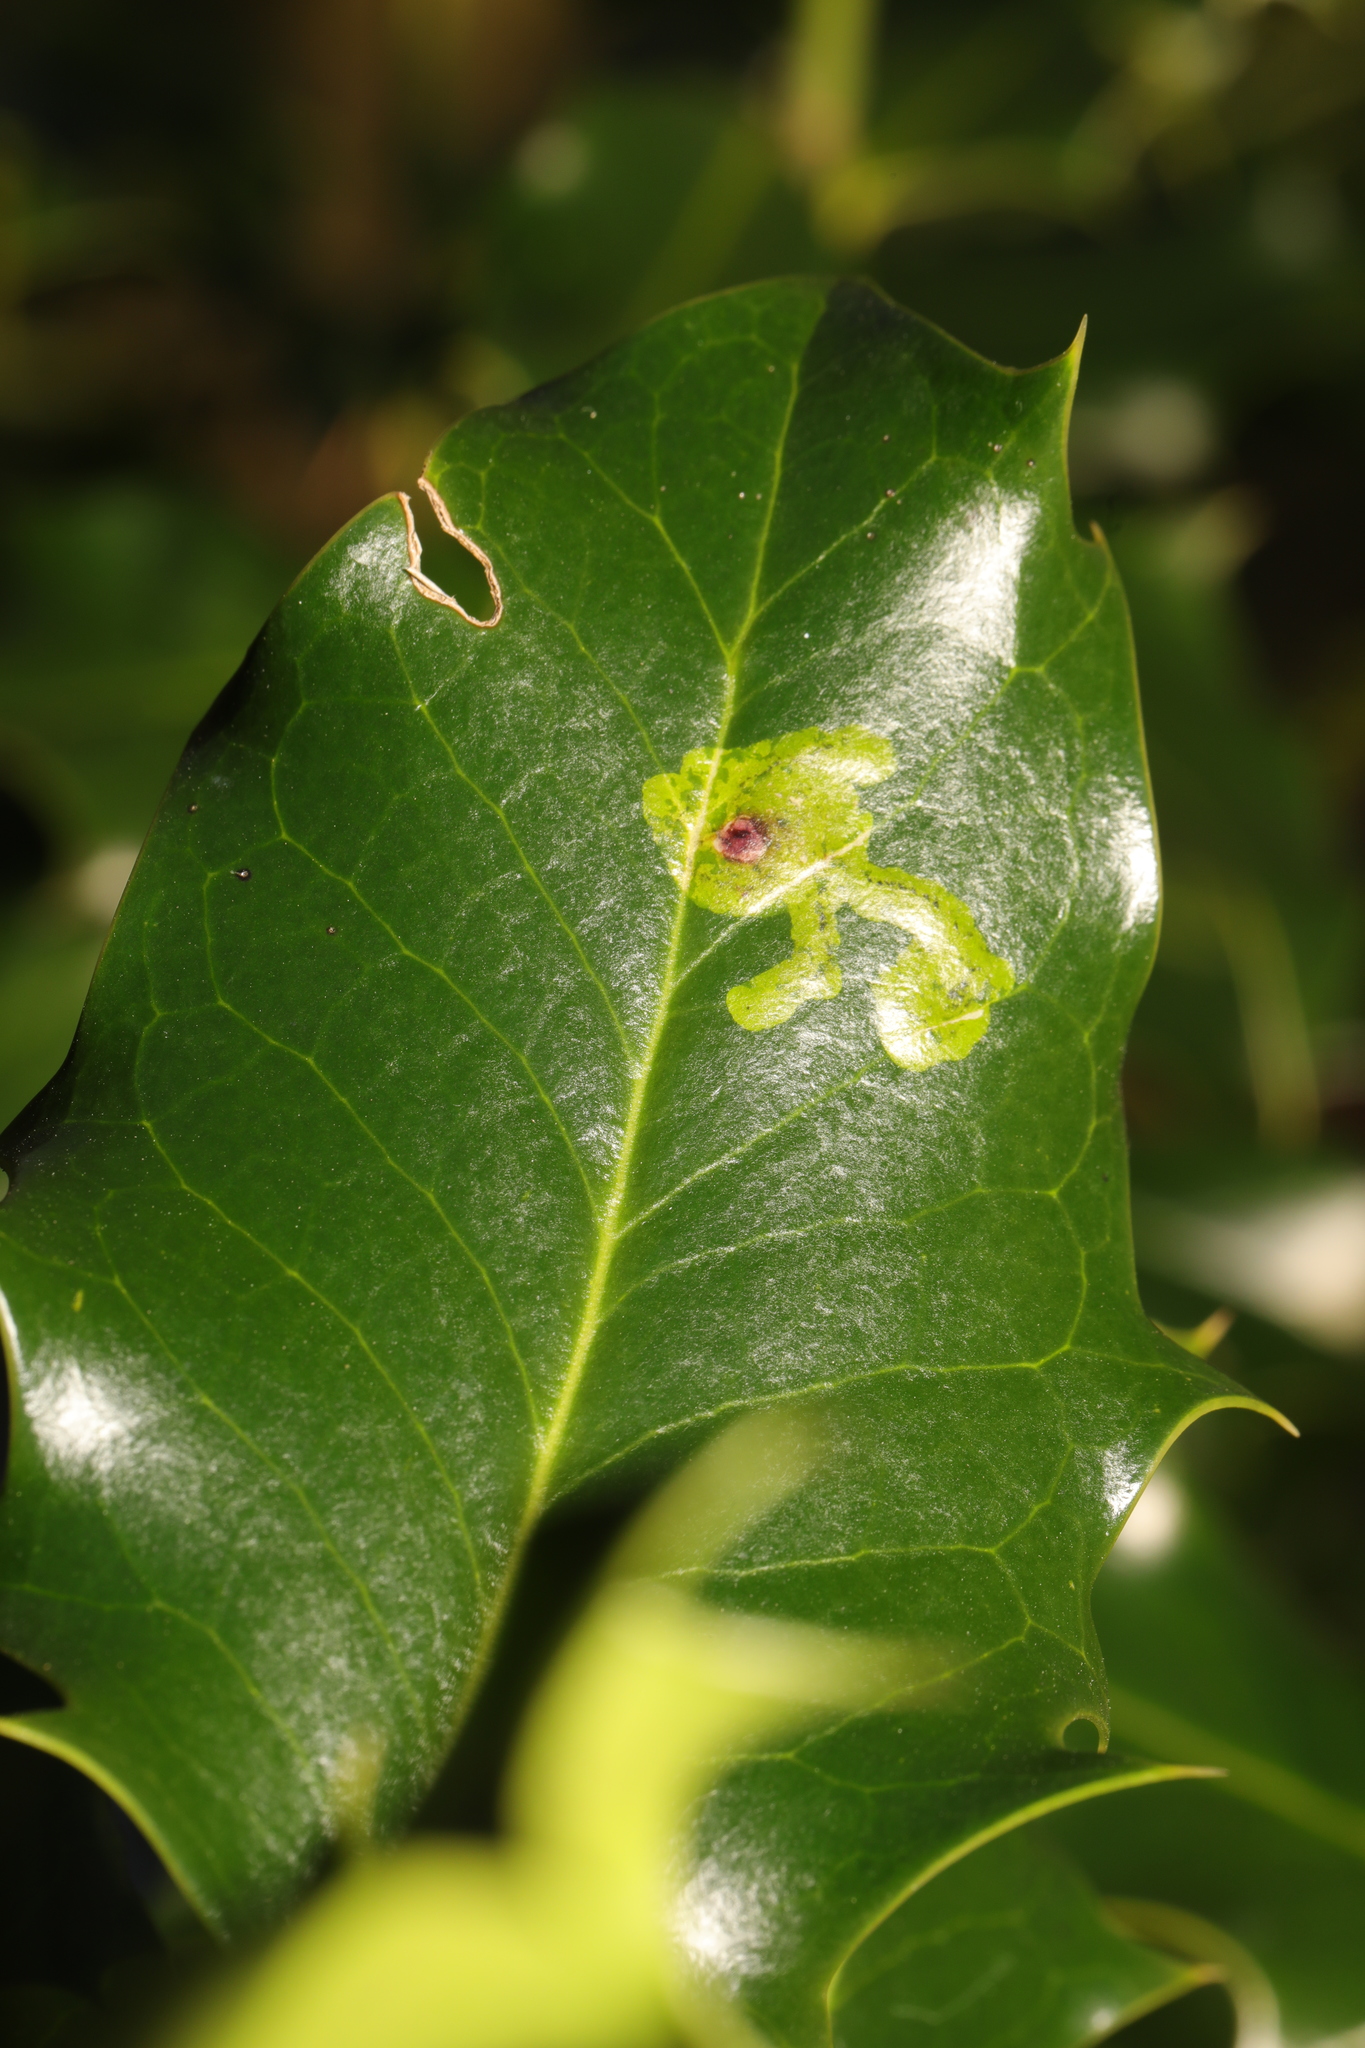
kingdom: Animalia
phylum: Arthropoda
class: Insecta
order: Diptera
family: Agromyzidae
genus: Phytomyza
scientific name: Phytomyza ilicis
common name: Holly leafminer
